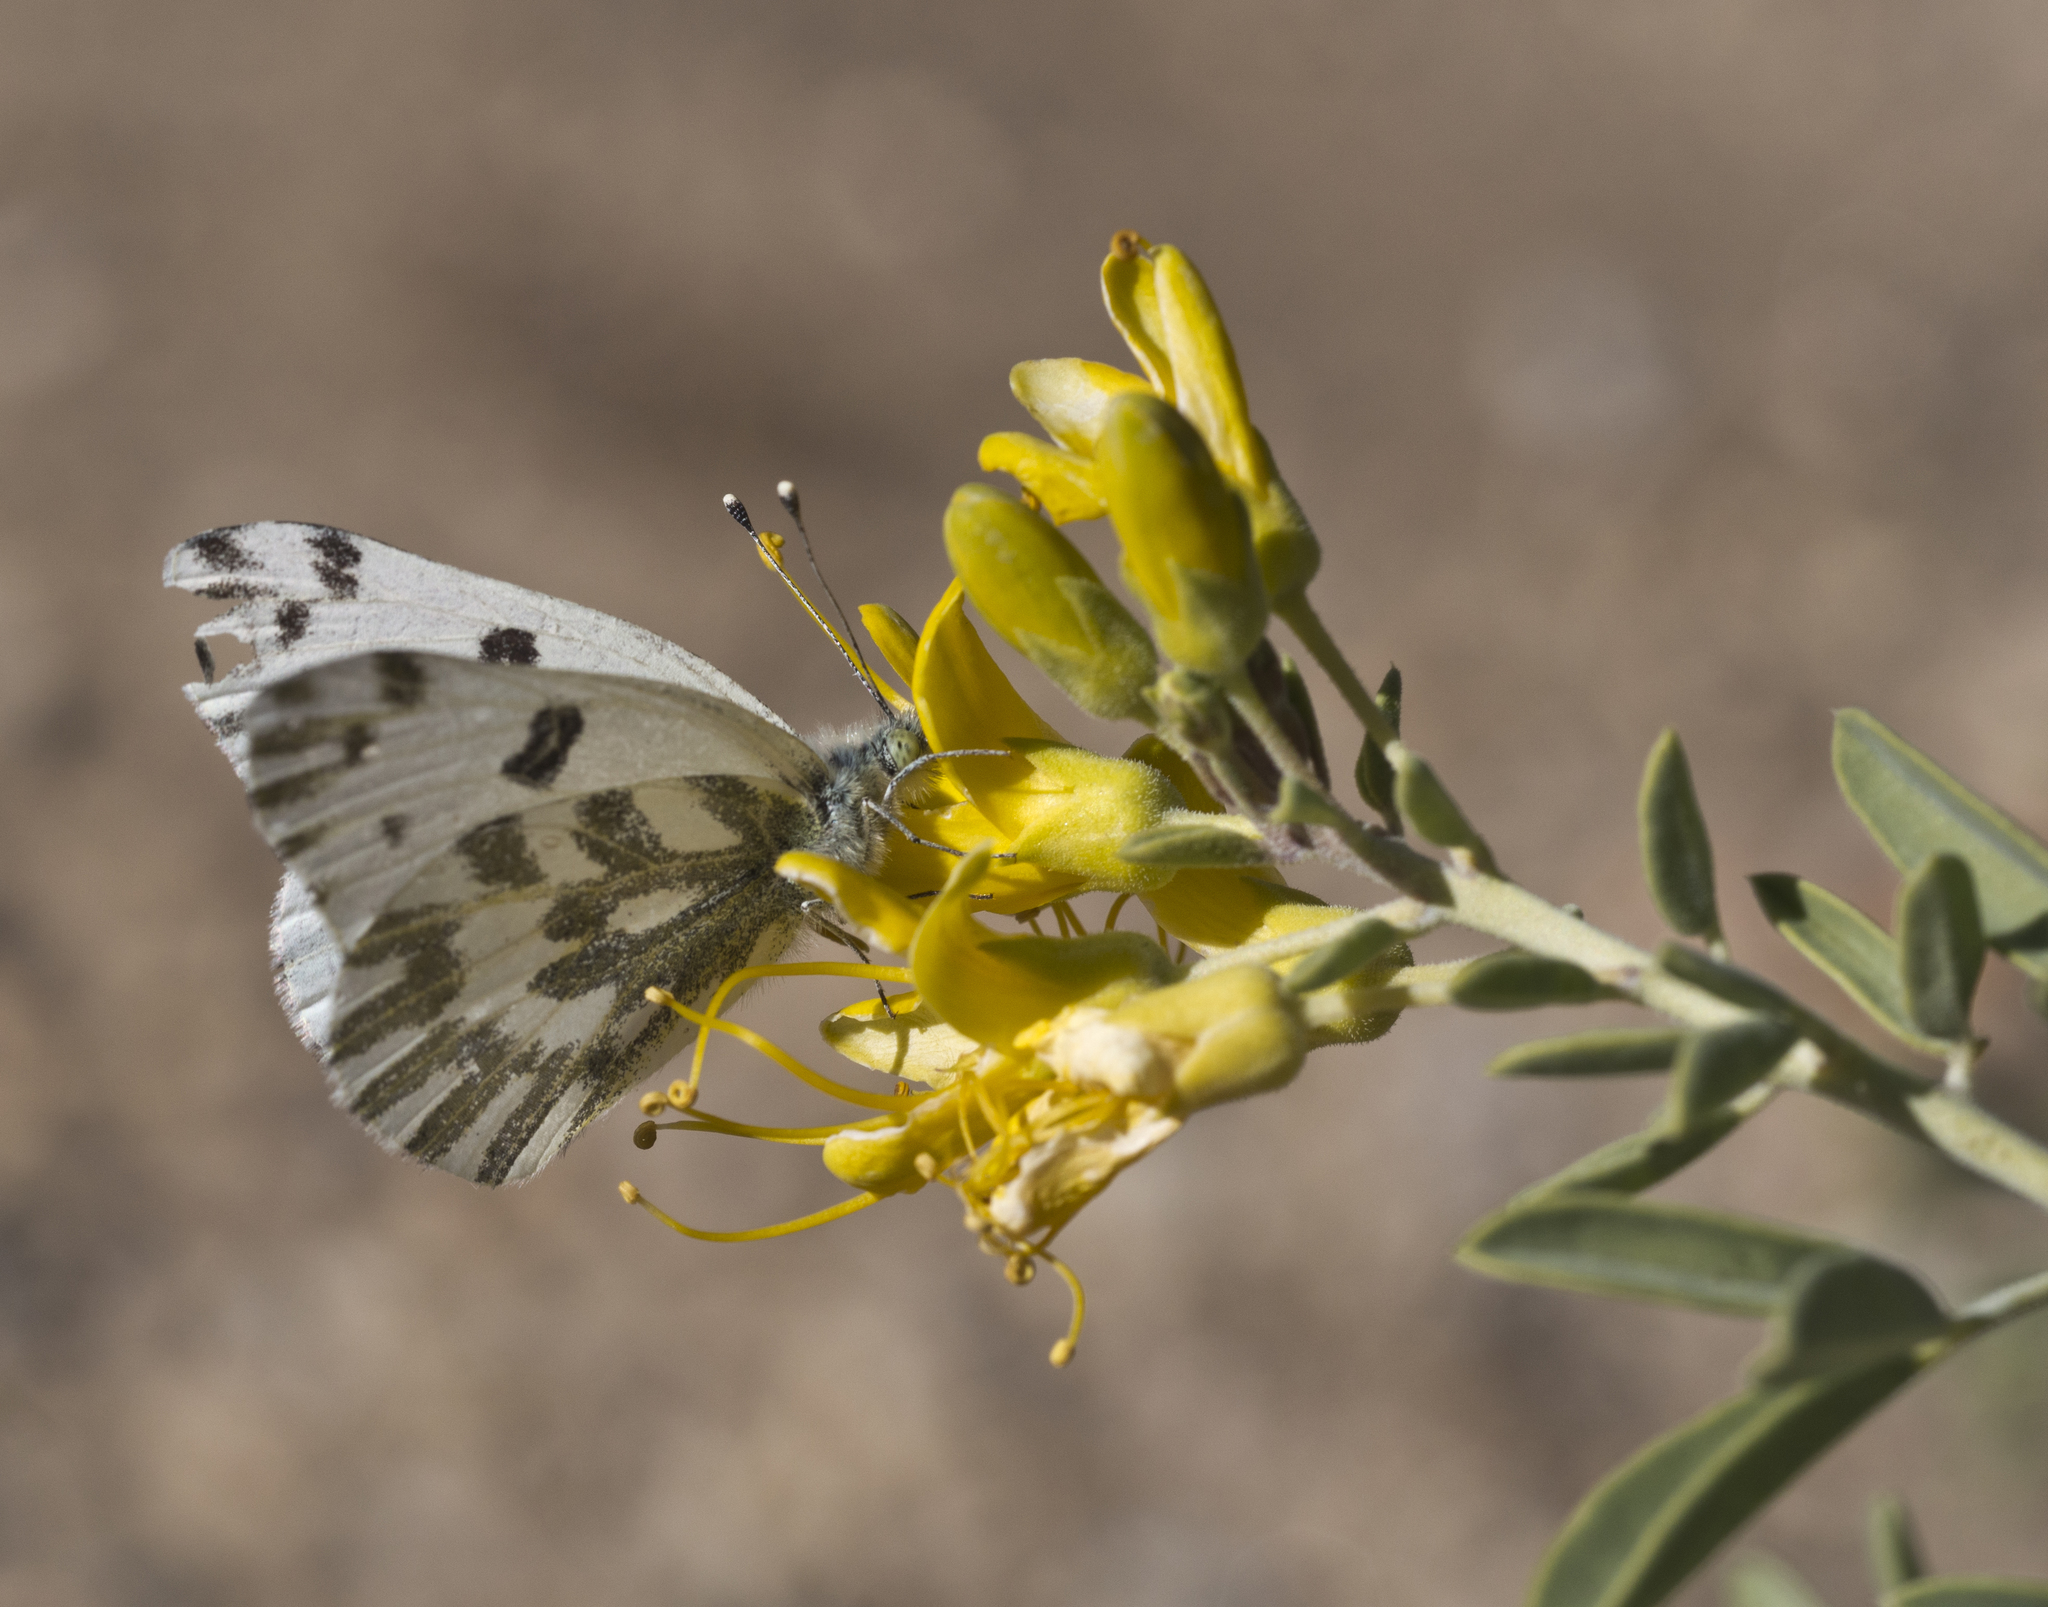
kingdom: Animalia
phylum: Arthropoda
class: Insecta
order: Lepidoptera
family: Pieridae
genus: Pontia
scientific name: Pontia beckerii
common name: Becker's white
